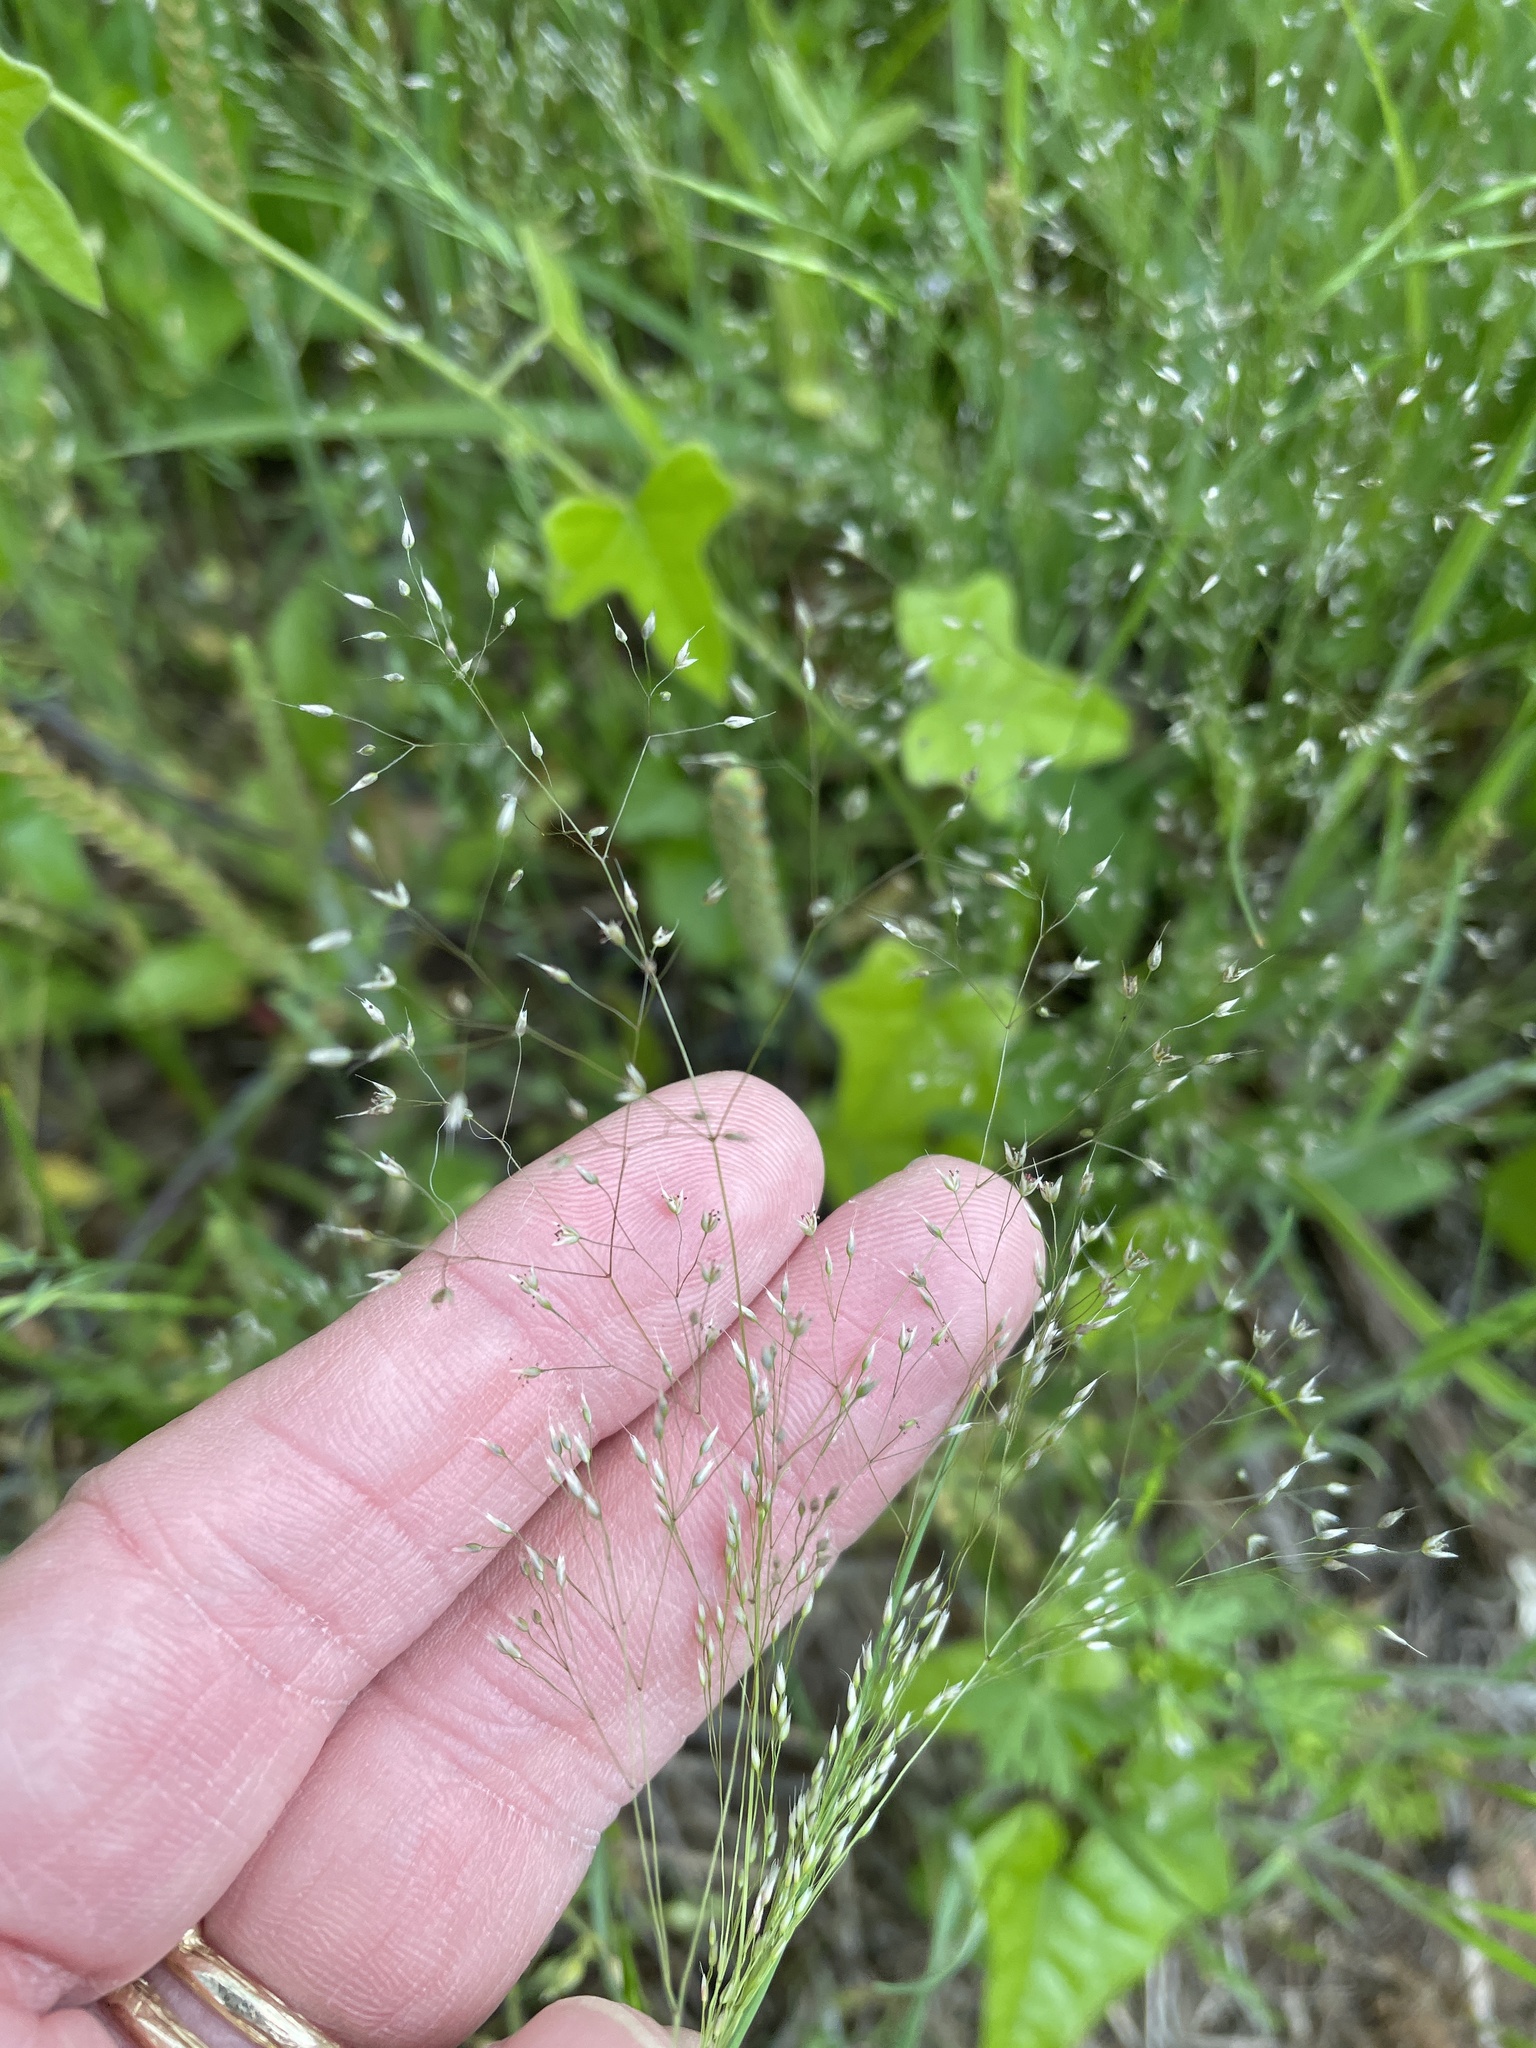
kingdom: Plantae
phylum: Tracheophyta
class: Liliopsida
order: Poales
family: Poaceae
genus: Aira
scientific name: Aira caryophyllea
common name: Silver hairgrass
